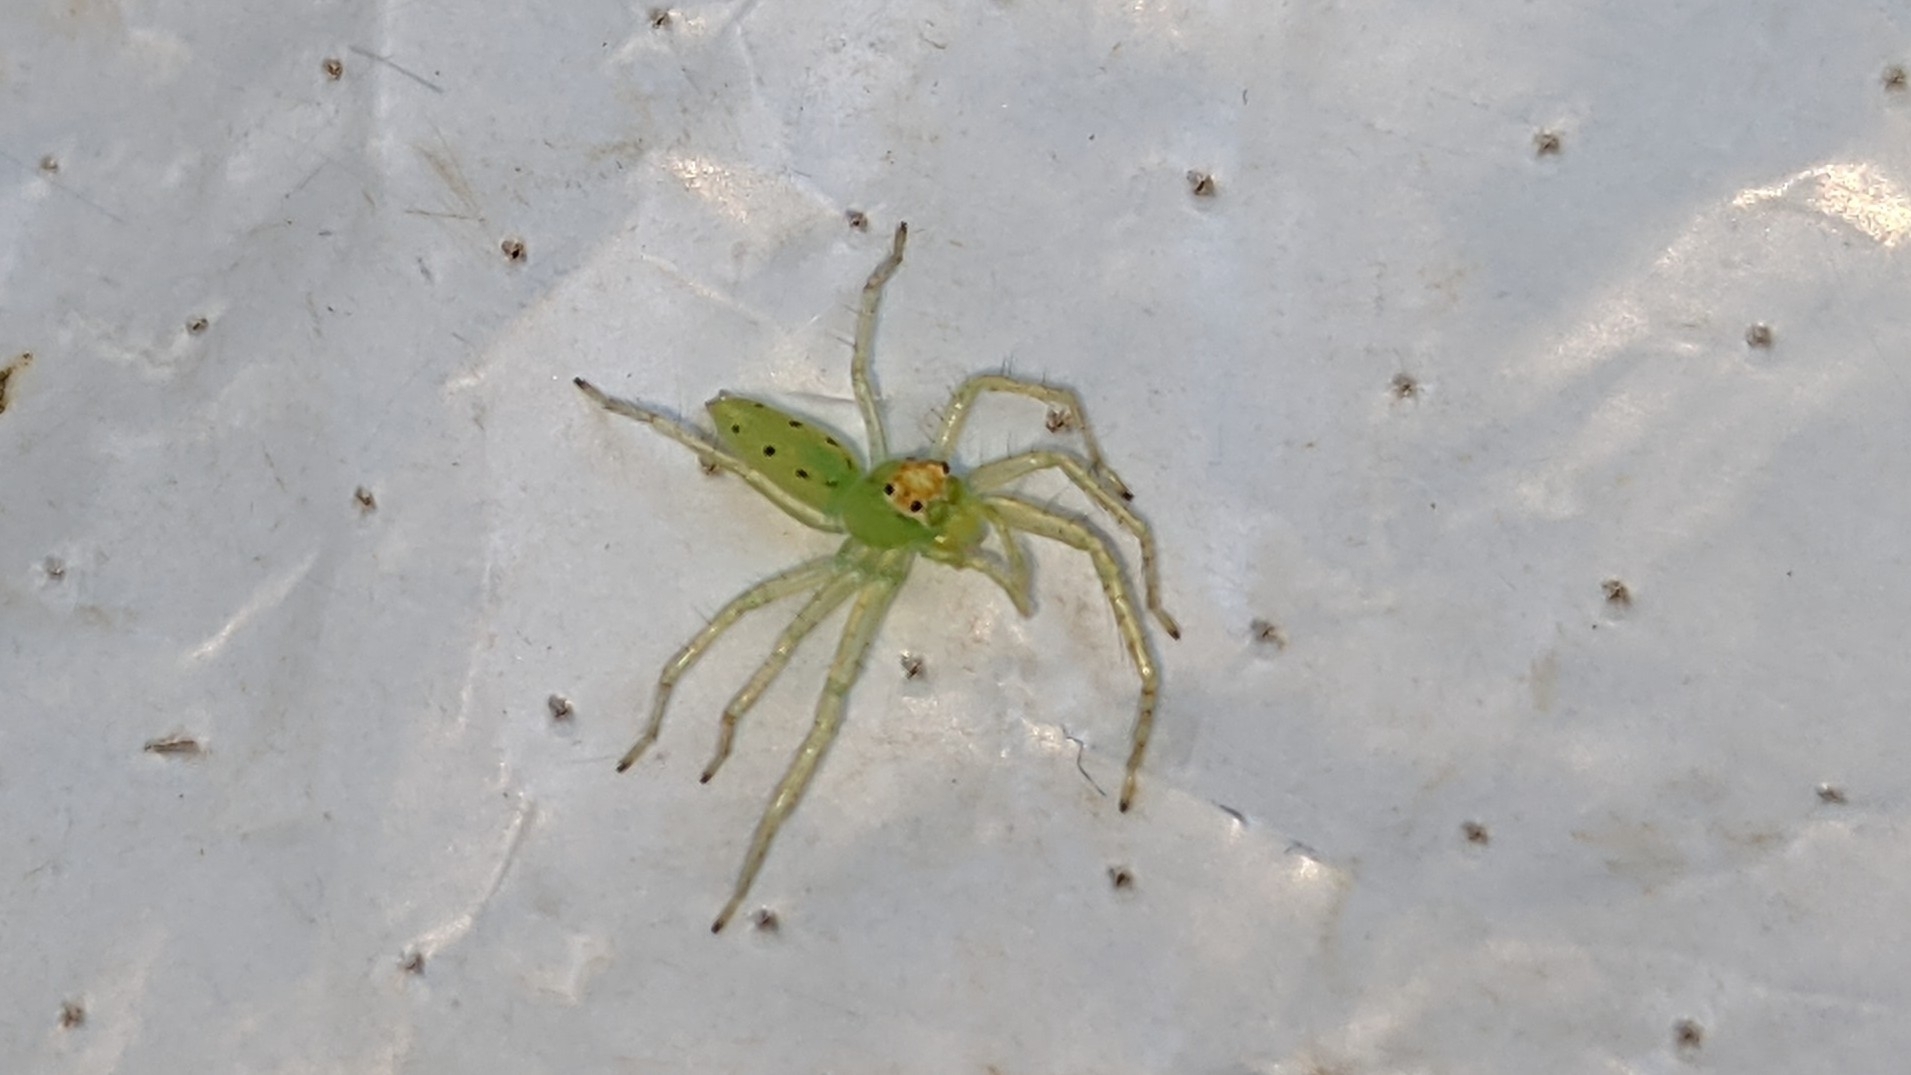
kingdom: Animalia
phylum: Arthropoda
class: Arachnida
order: Araneae
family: Salticidae
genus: Lyssomanes
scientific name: Lyssomanes viridis
